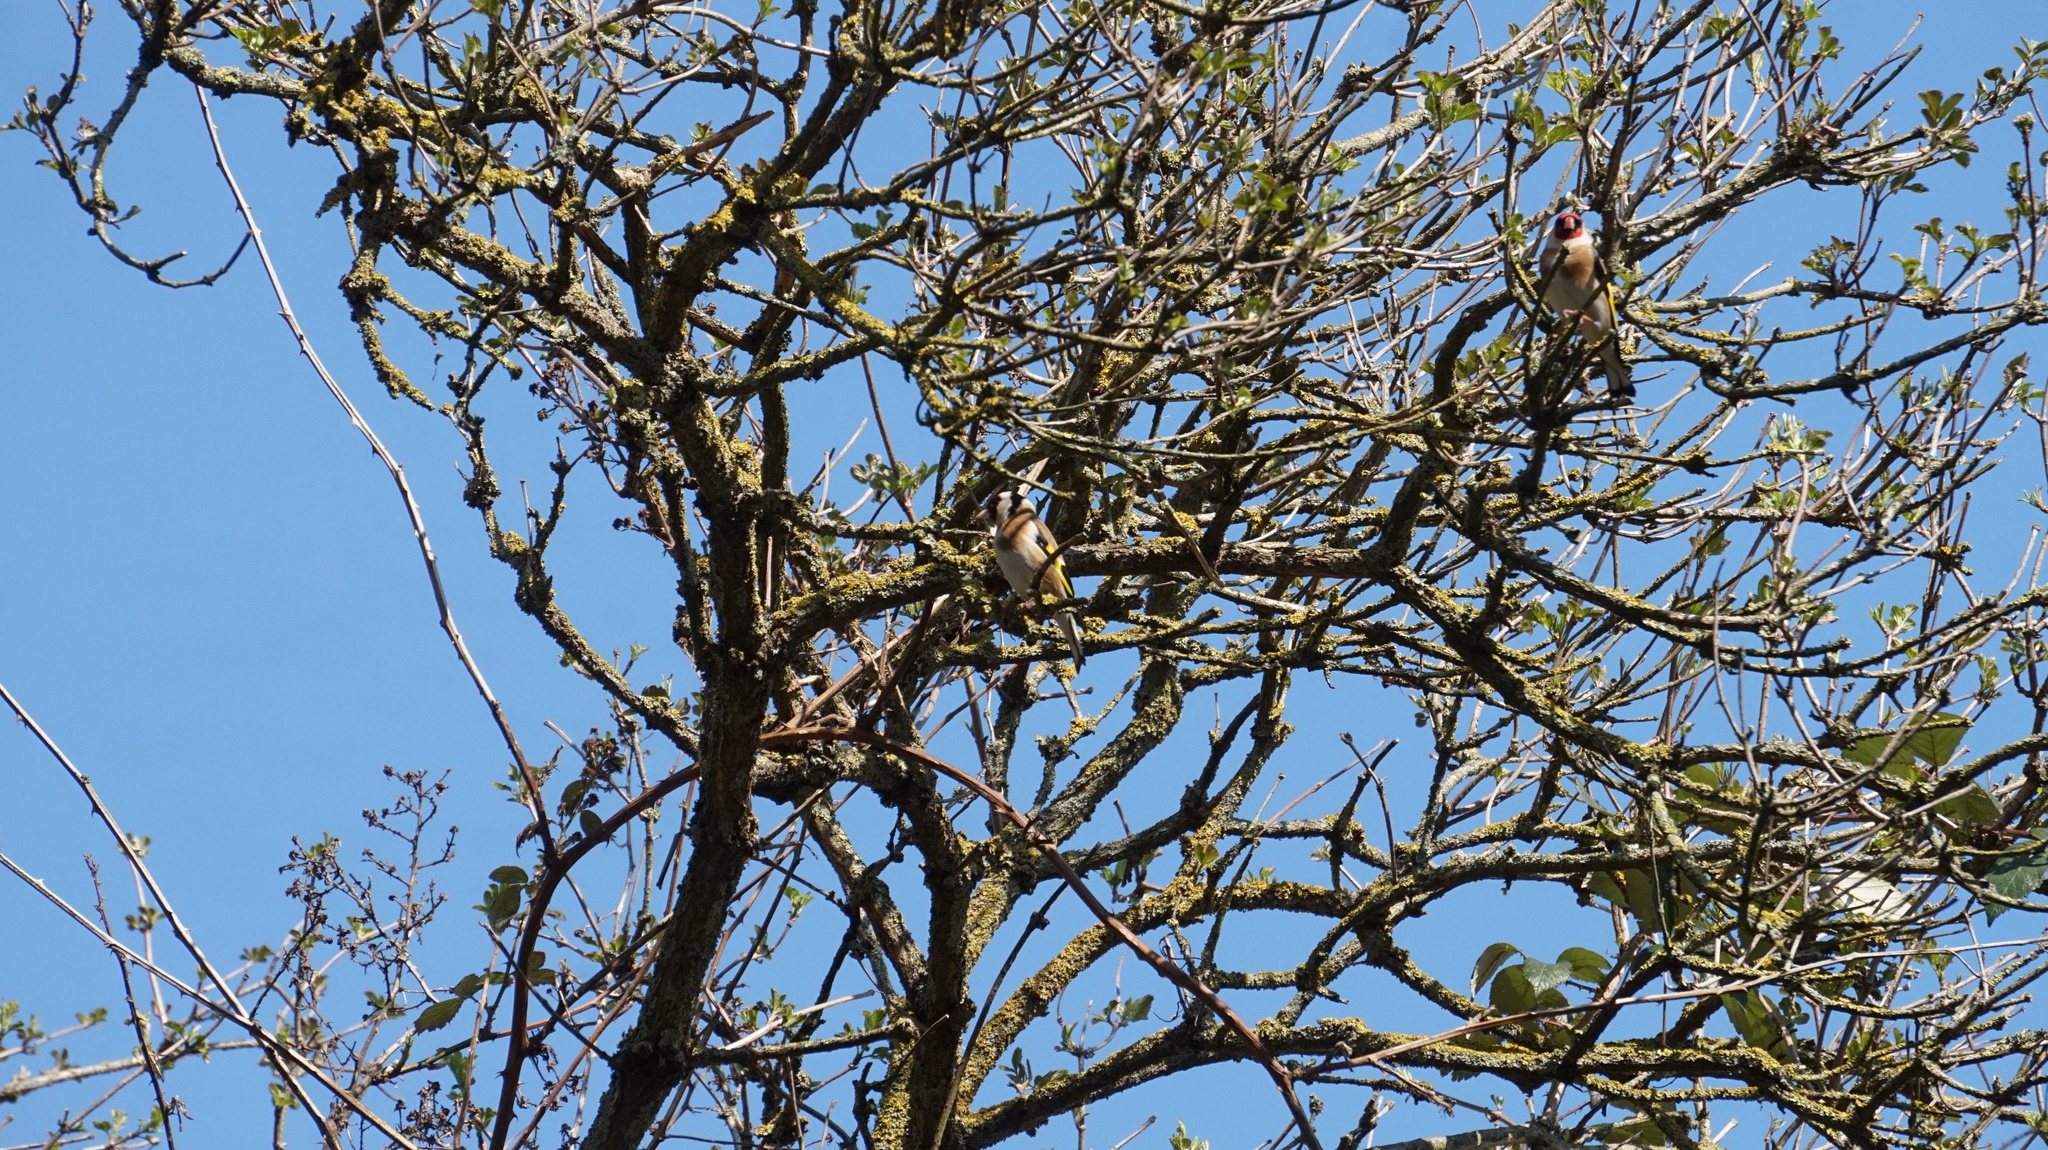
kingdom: Animalia
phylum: Chordata
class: Aves
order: Passeriformes
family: Fringillidae
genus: Carduelis
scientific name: Carduelis carduelis
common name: European goldfinch
